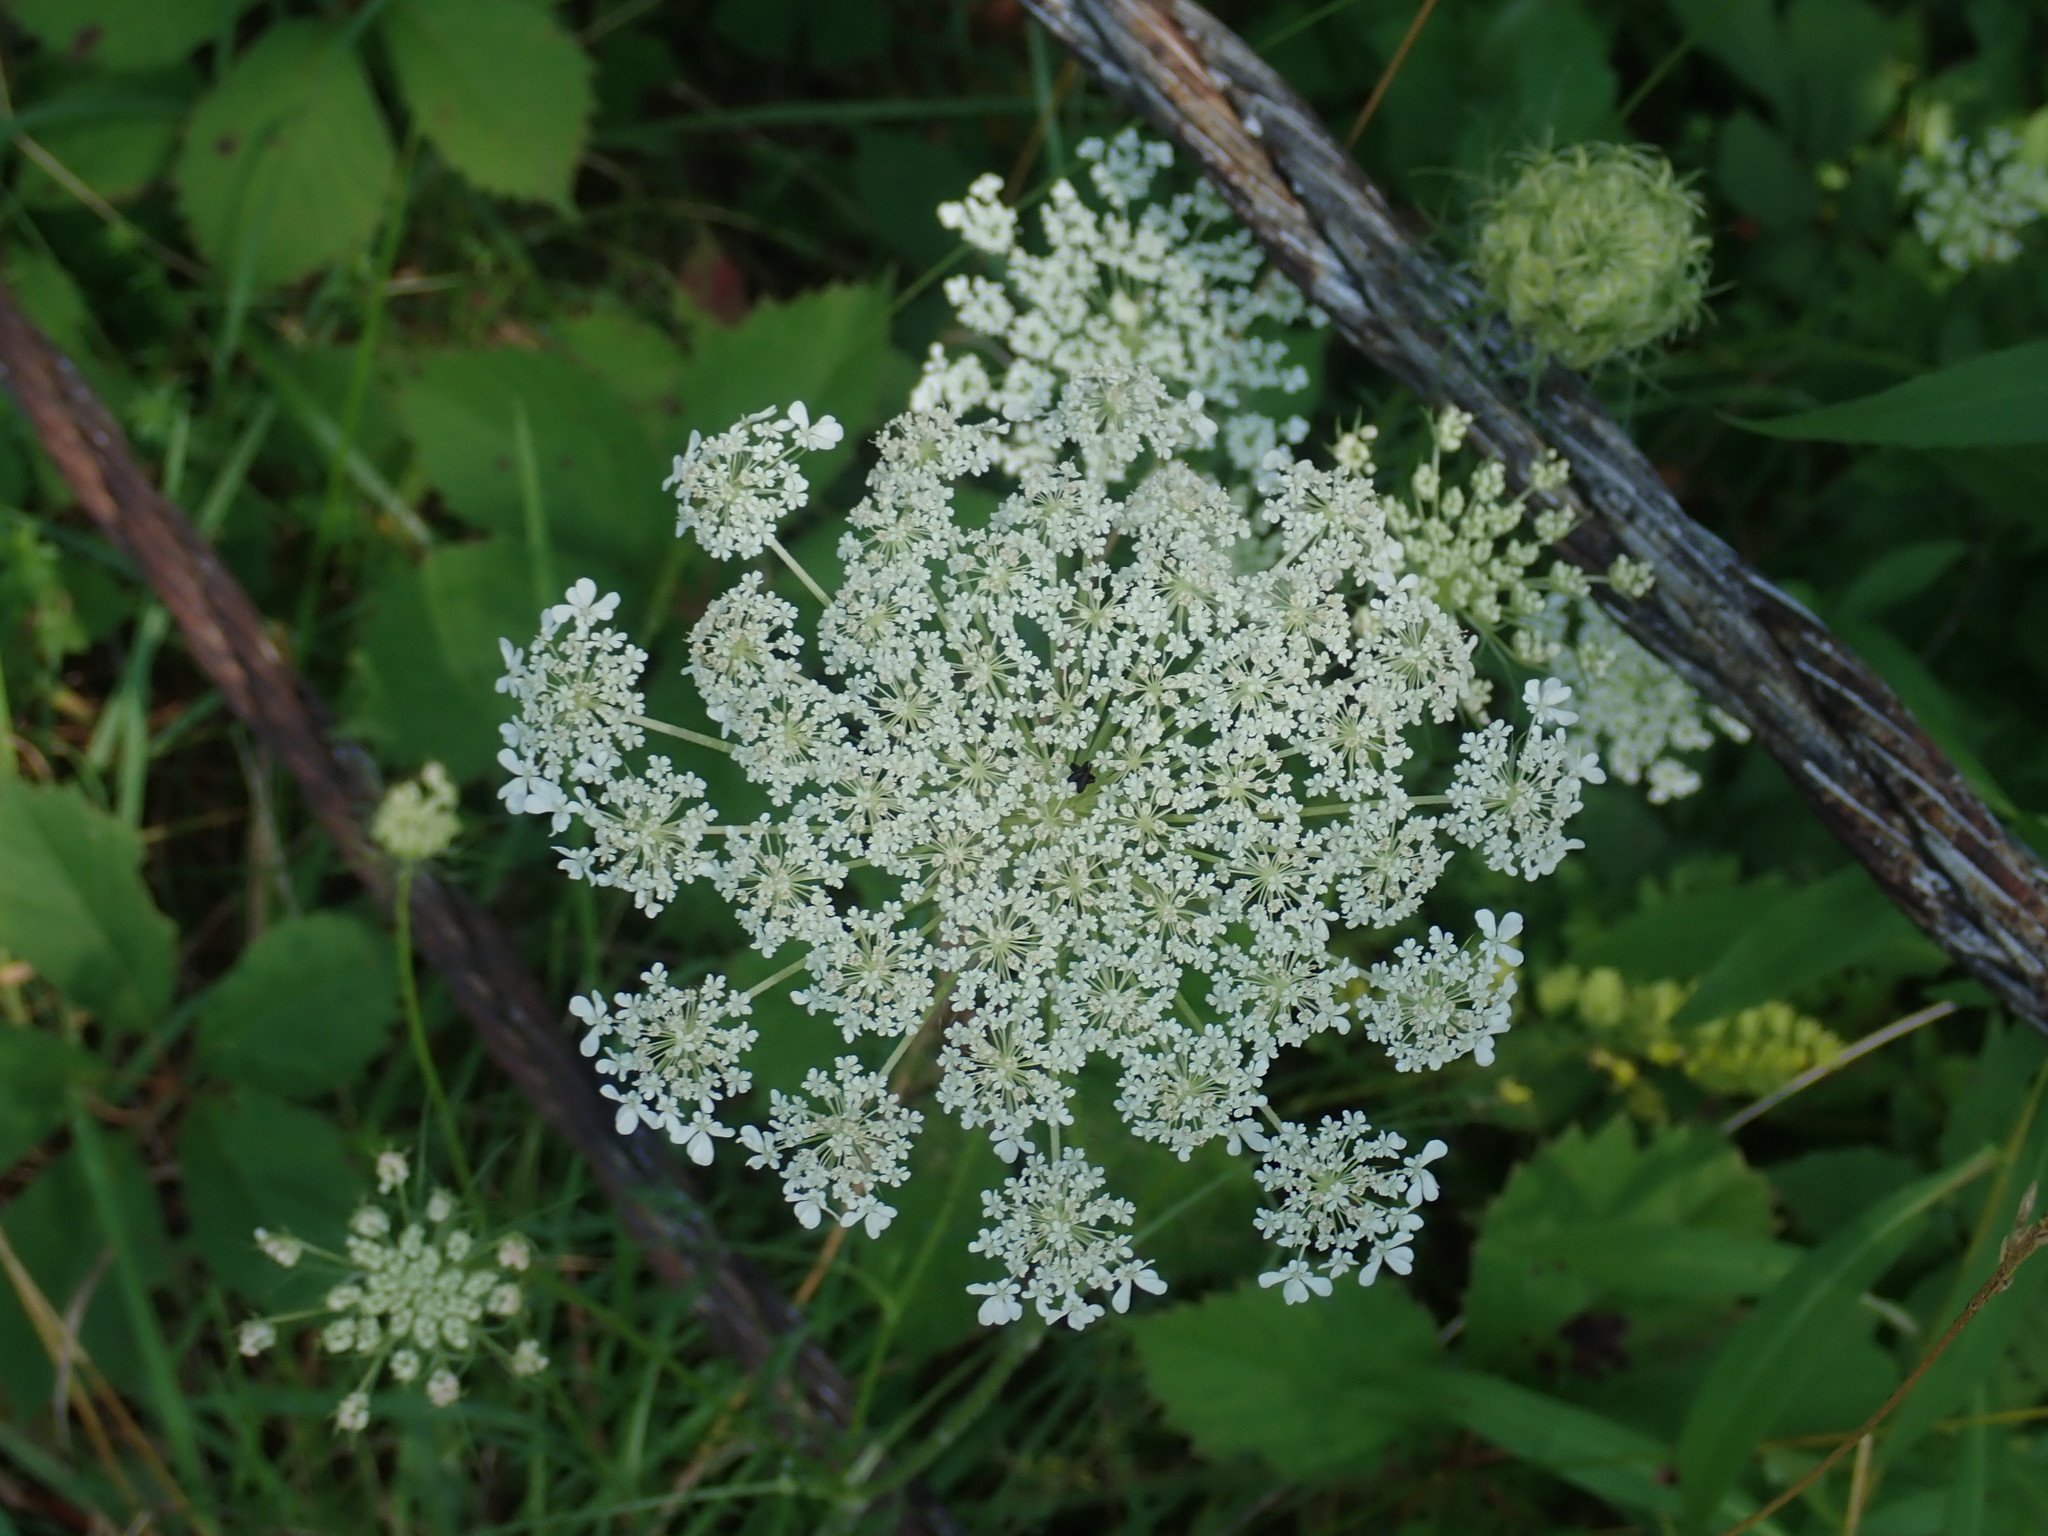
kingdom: Plantae
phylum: Tracheophyta
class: Magnoliopsida
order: Apiales
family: Apiaceae
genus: Daucus
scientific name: Daucus carota
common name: Wild carrot
